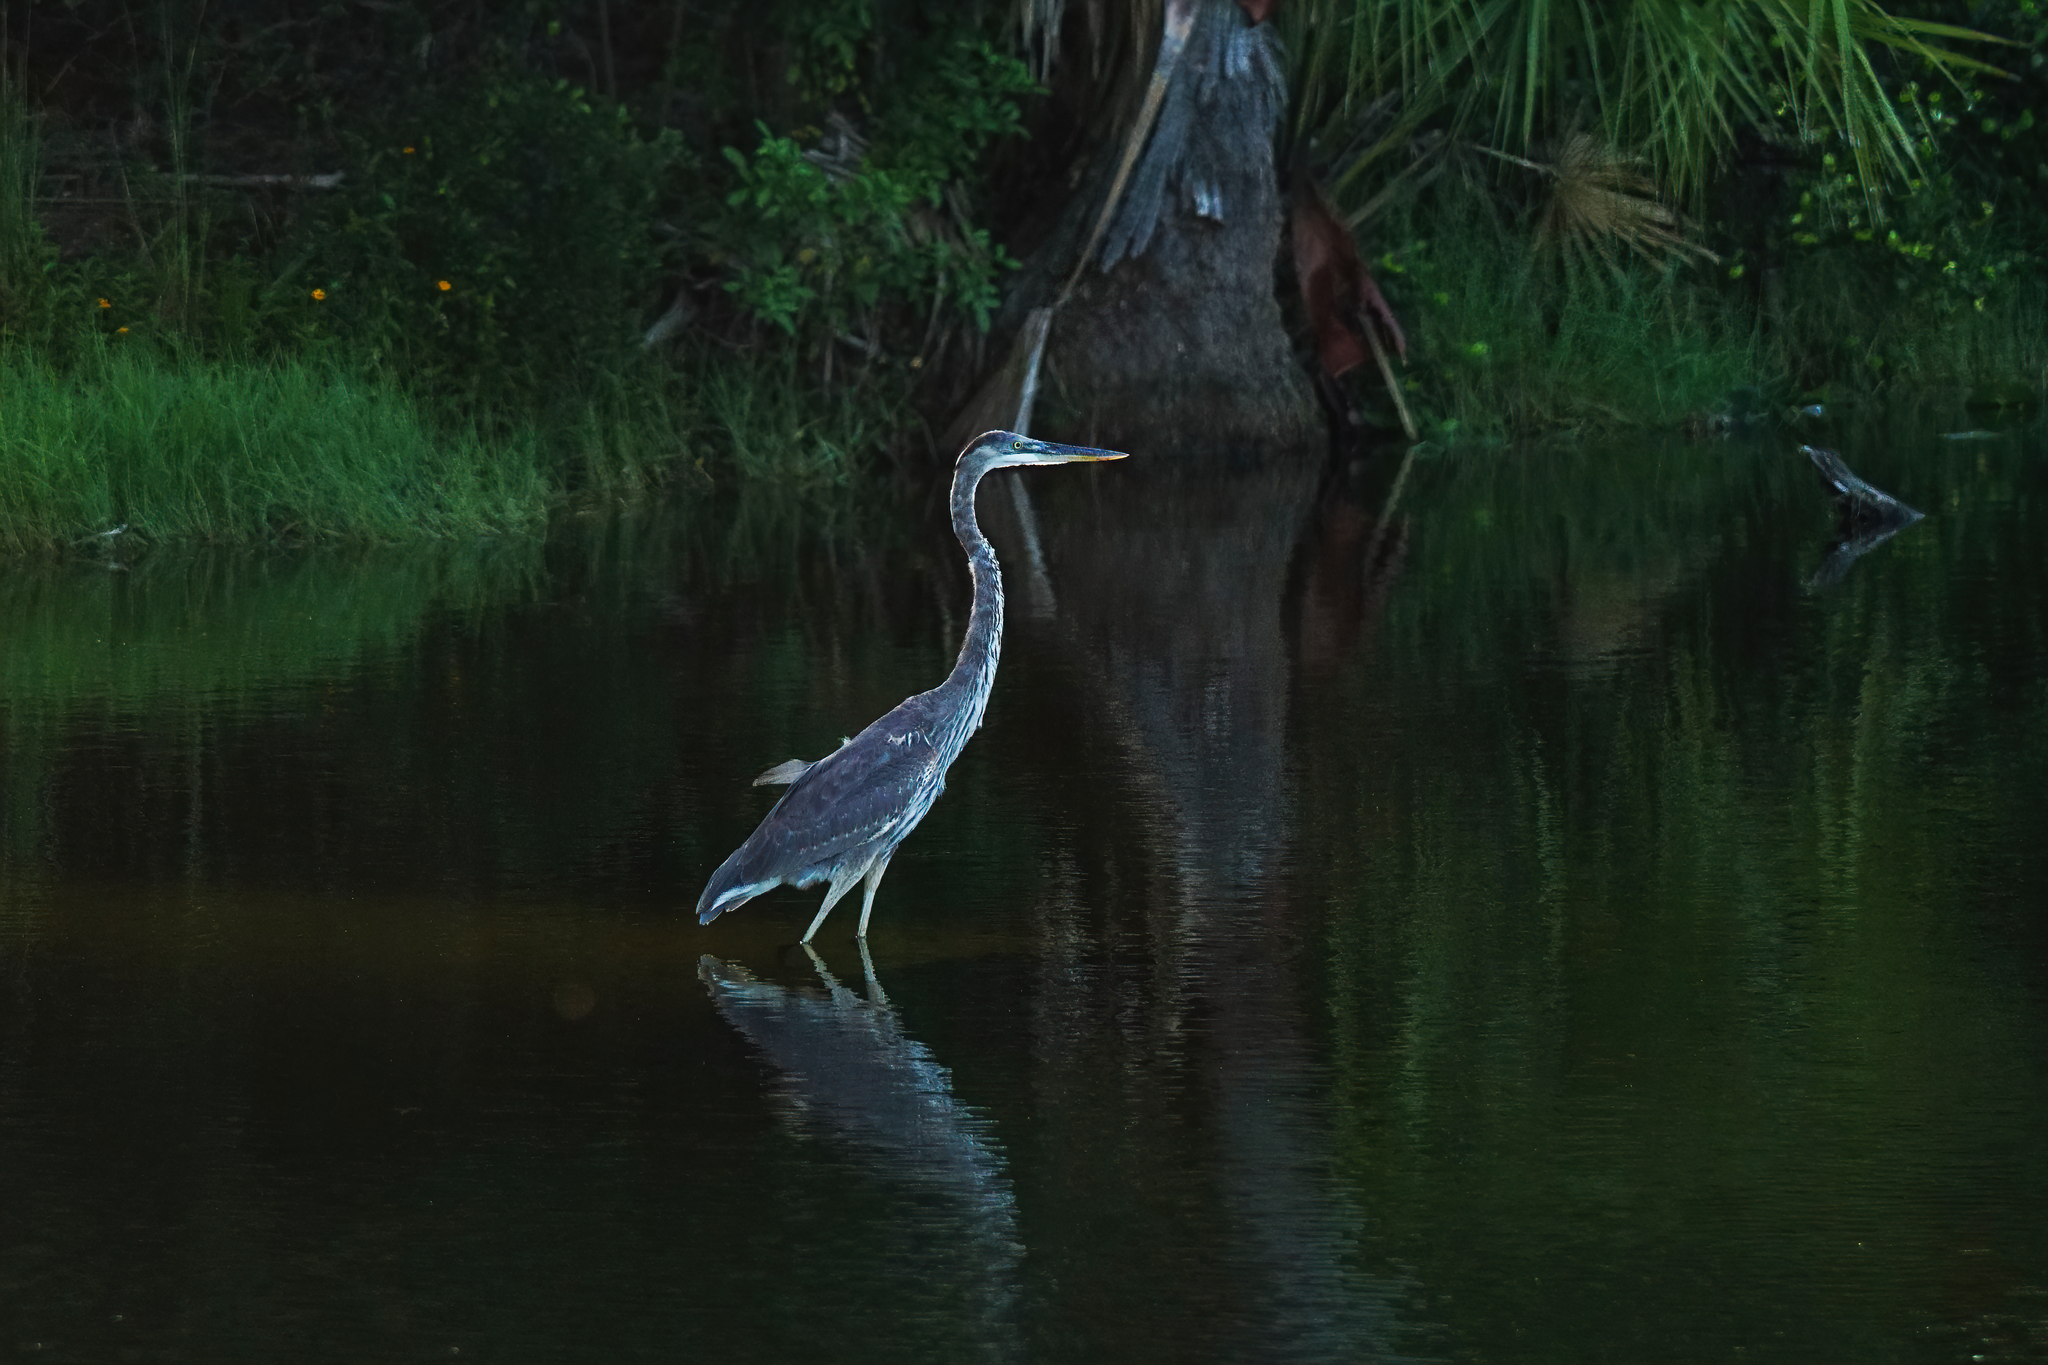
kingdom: Animalia
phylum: Chordata
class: Aves
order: Pelecaniformes
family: Ardeidae
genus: Ardea
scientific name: Ardea herodias
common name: Great blue heron
